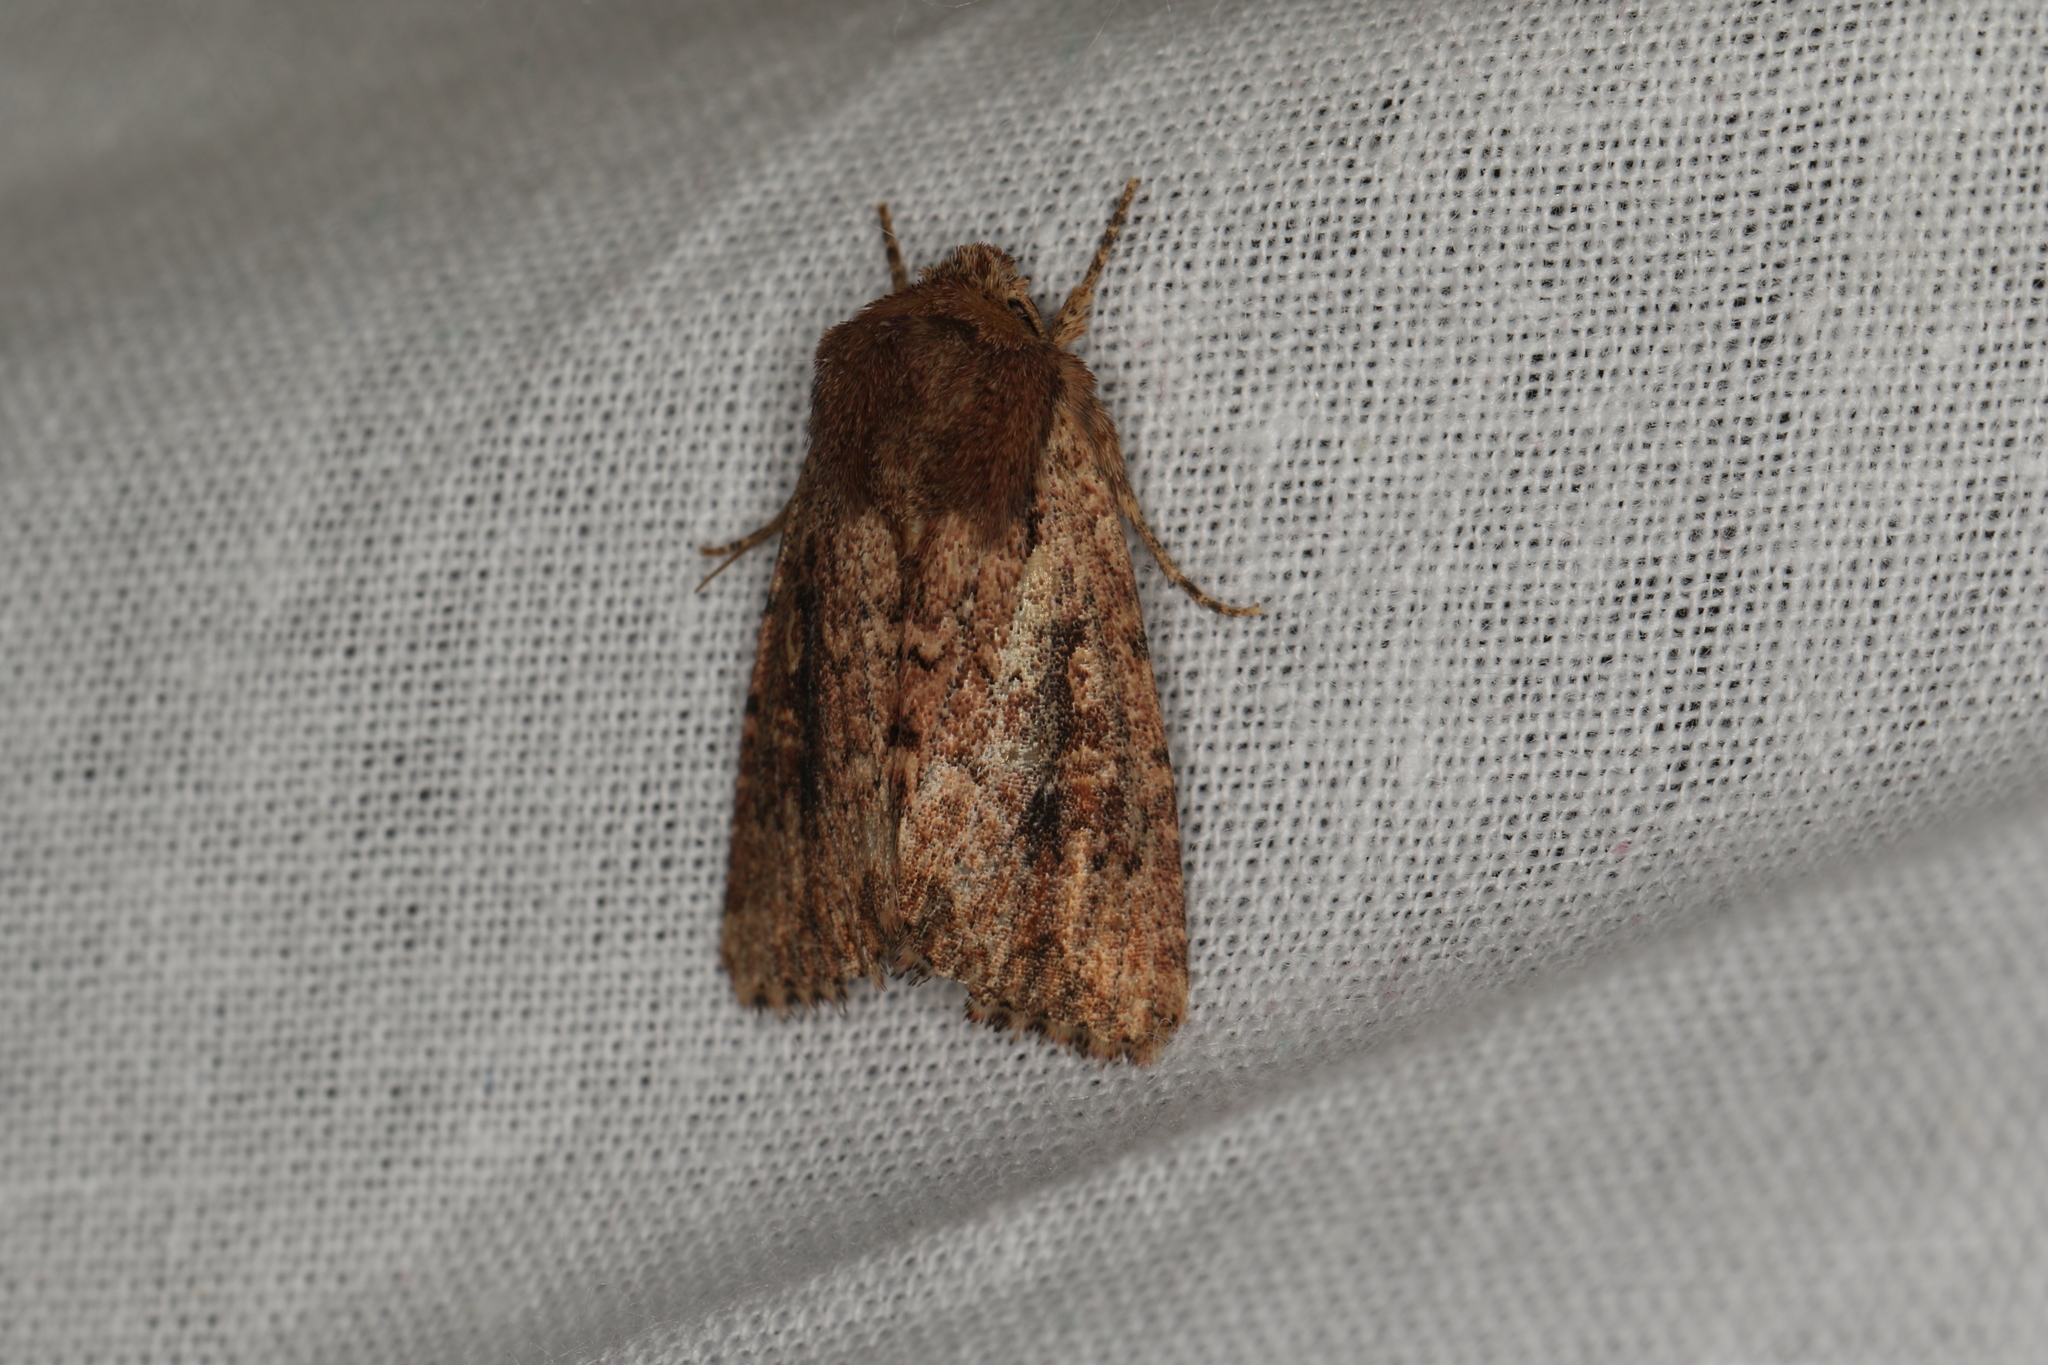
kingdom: Animalia
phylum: Arthropoda
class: Insecta
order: Lepidoptera
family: Noctuidae
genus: Dasygaster
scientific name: Dasygaster padockina
